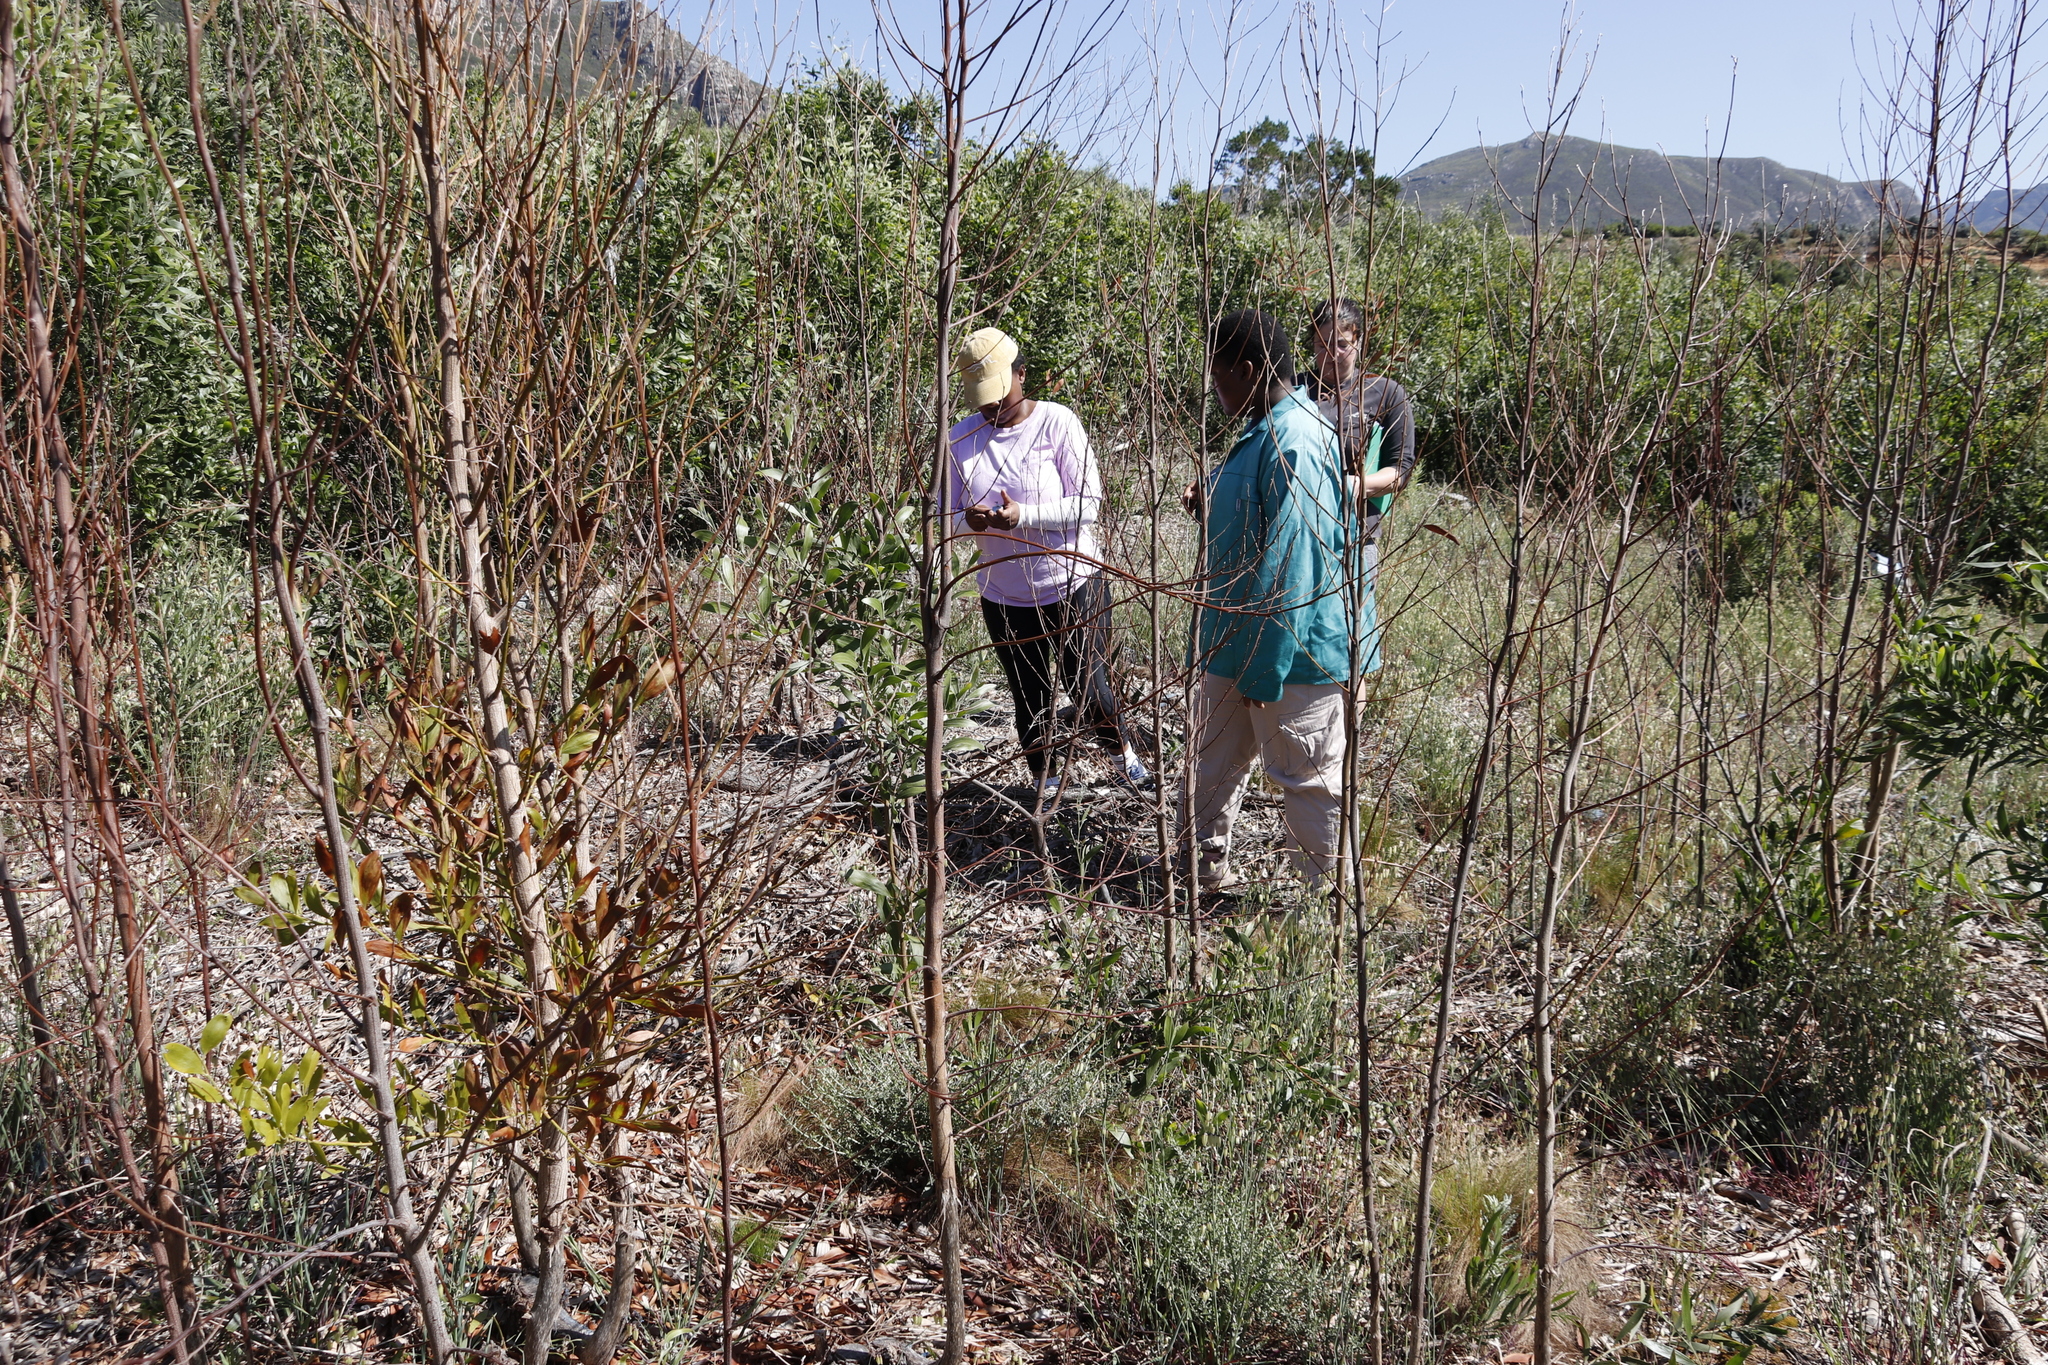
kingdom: Plantae
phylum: Tracheophyta
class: Magnoliopsida
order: Fabales
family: Fabaceae
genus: Acacia
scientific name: Acacia melanoxylon
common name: Blackwood
